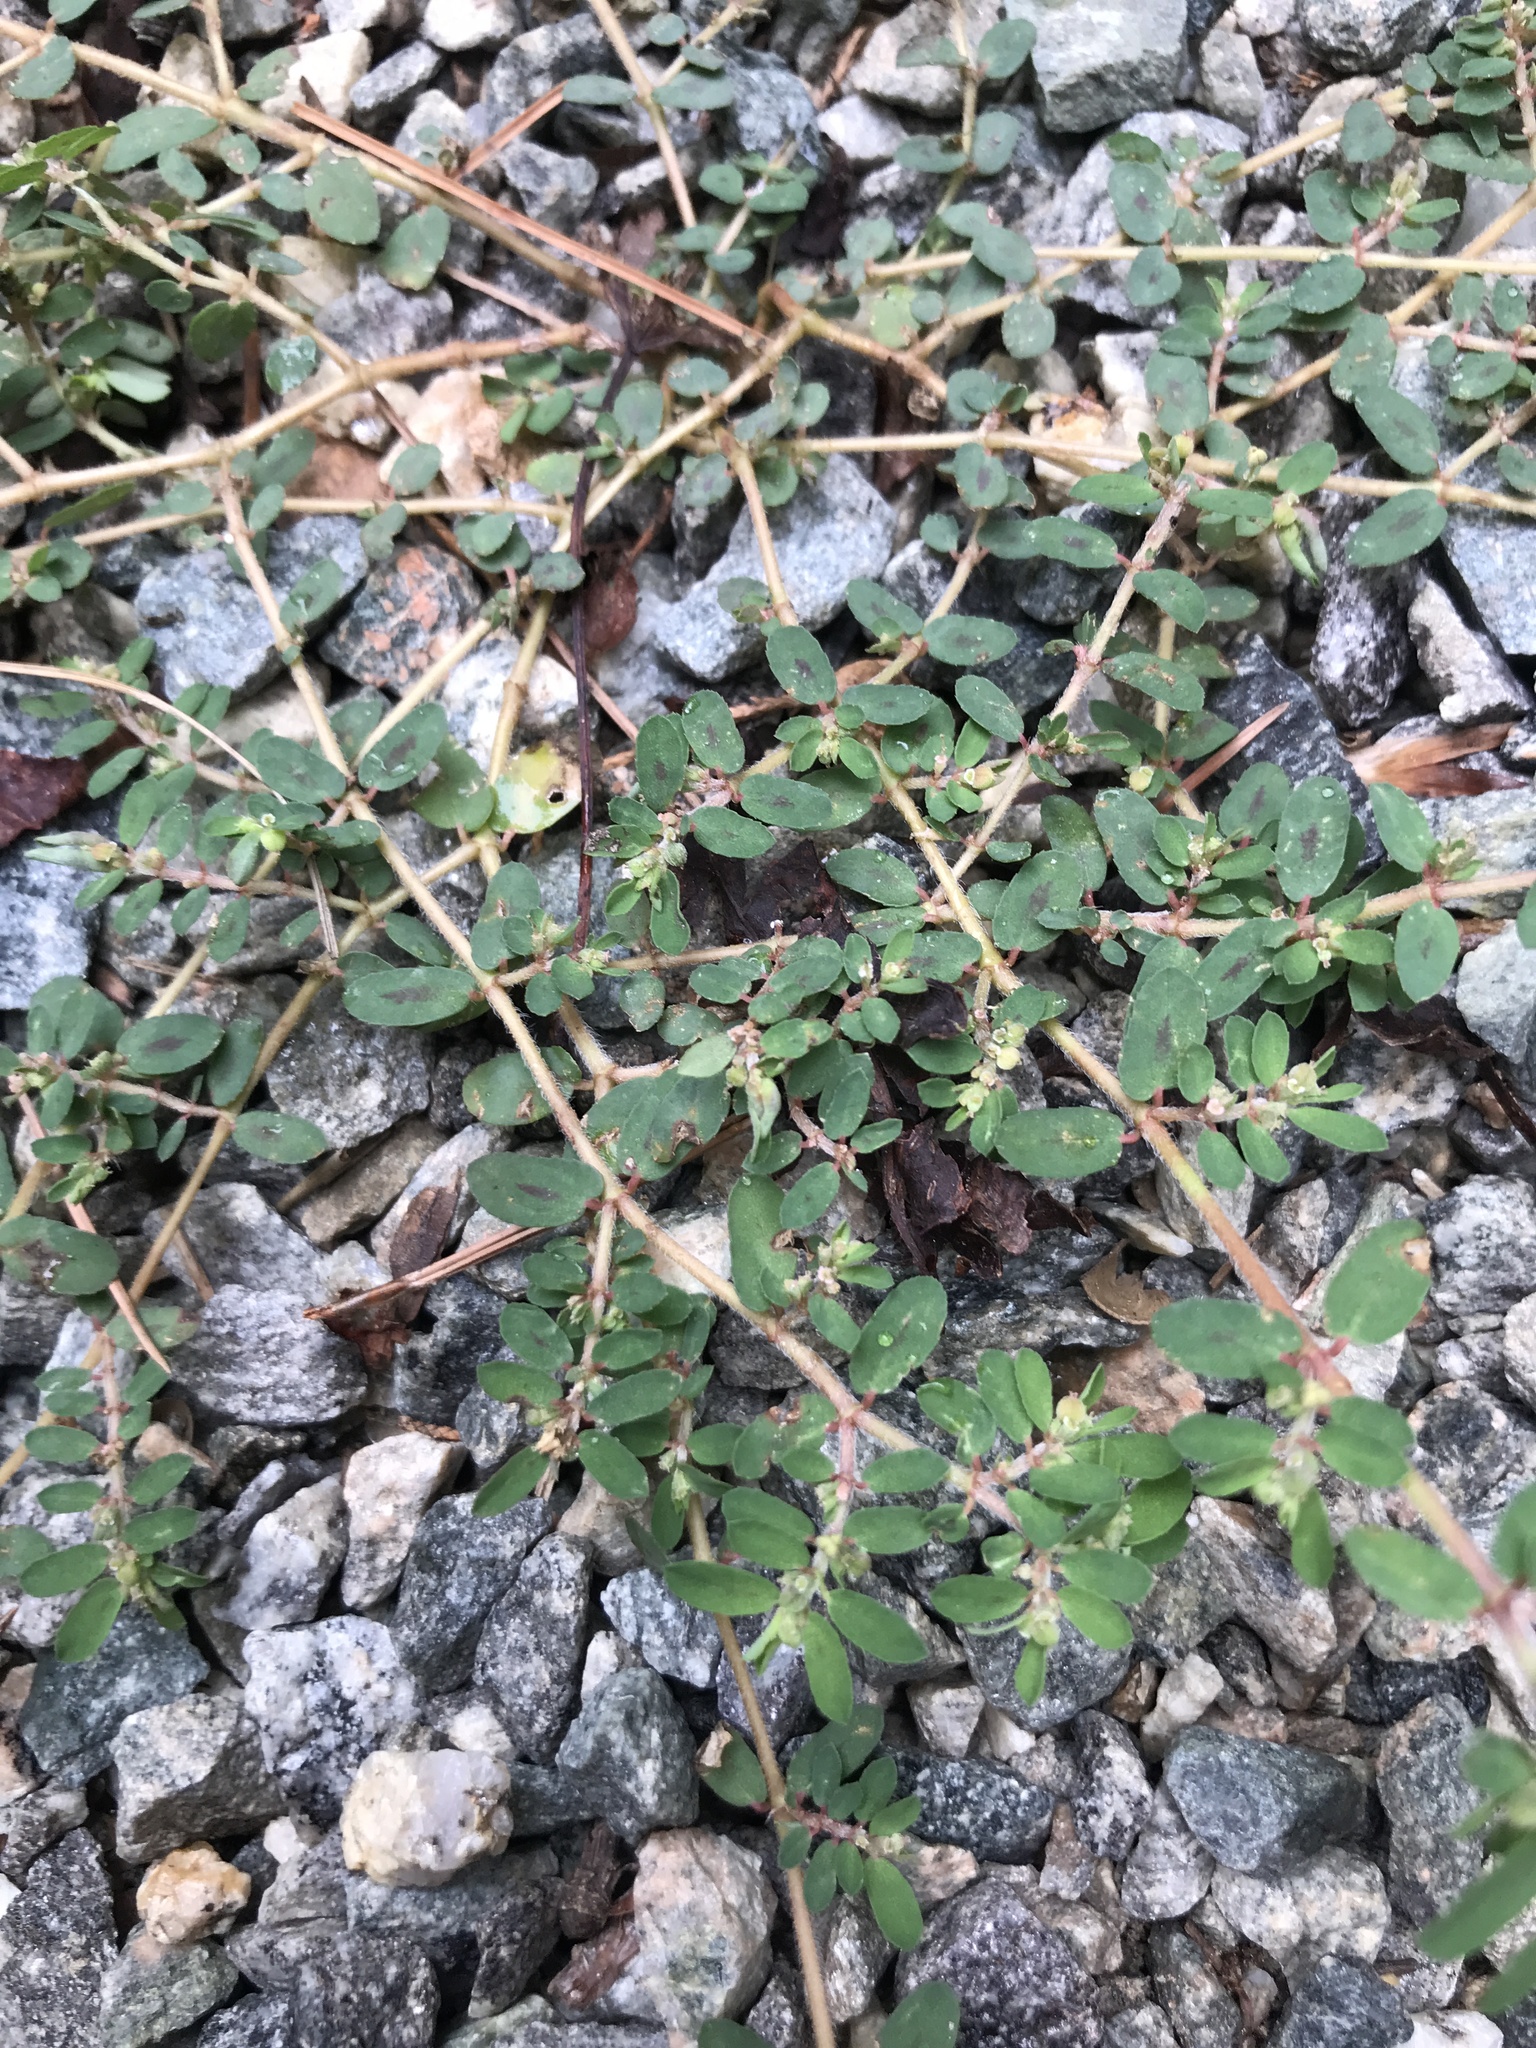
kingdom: Plantae
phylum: Tracheophyta
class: Magnoliopsida
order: Malpighiales
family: Euphorbiaceae
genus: Euphorbia
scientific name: Euphorbia maculata
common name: Spotted spurge
